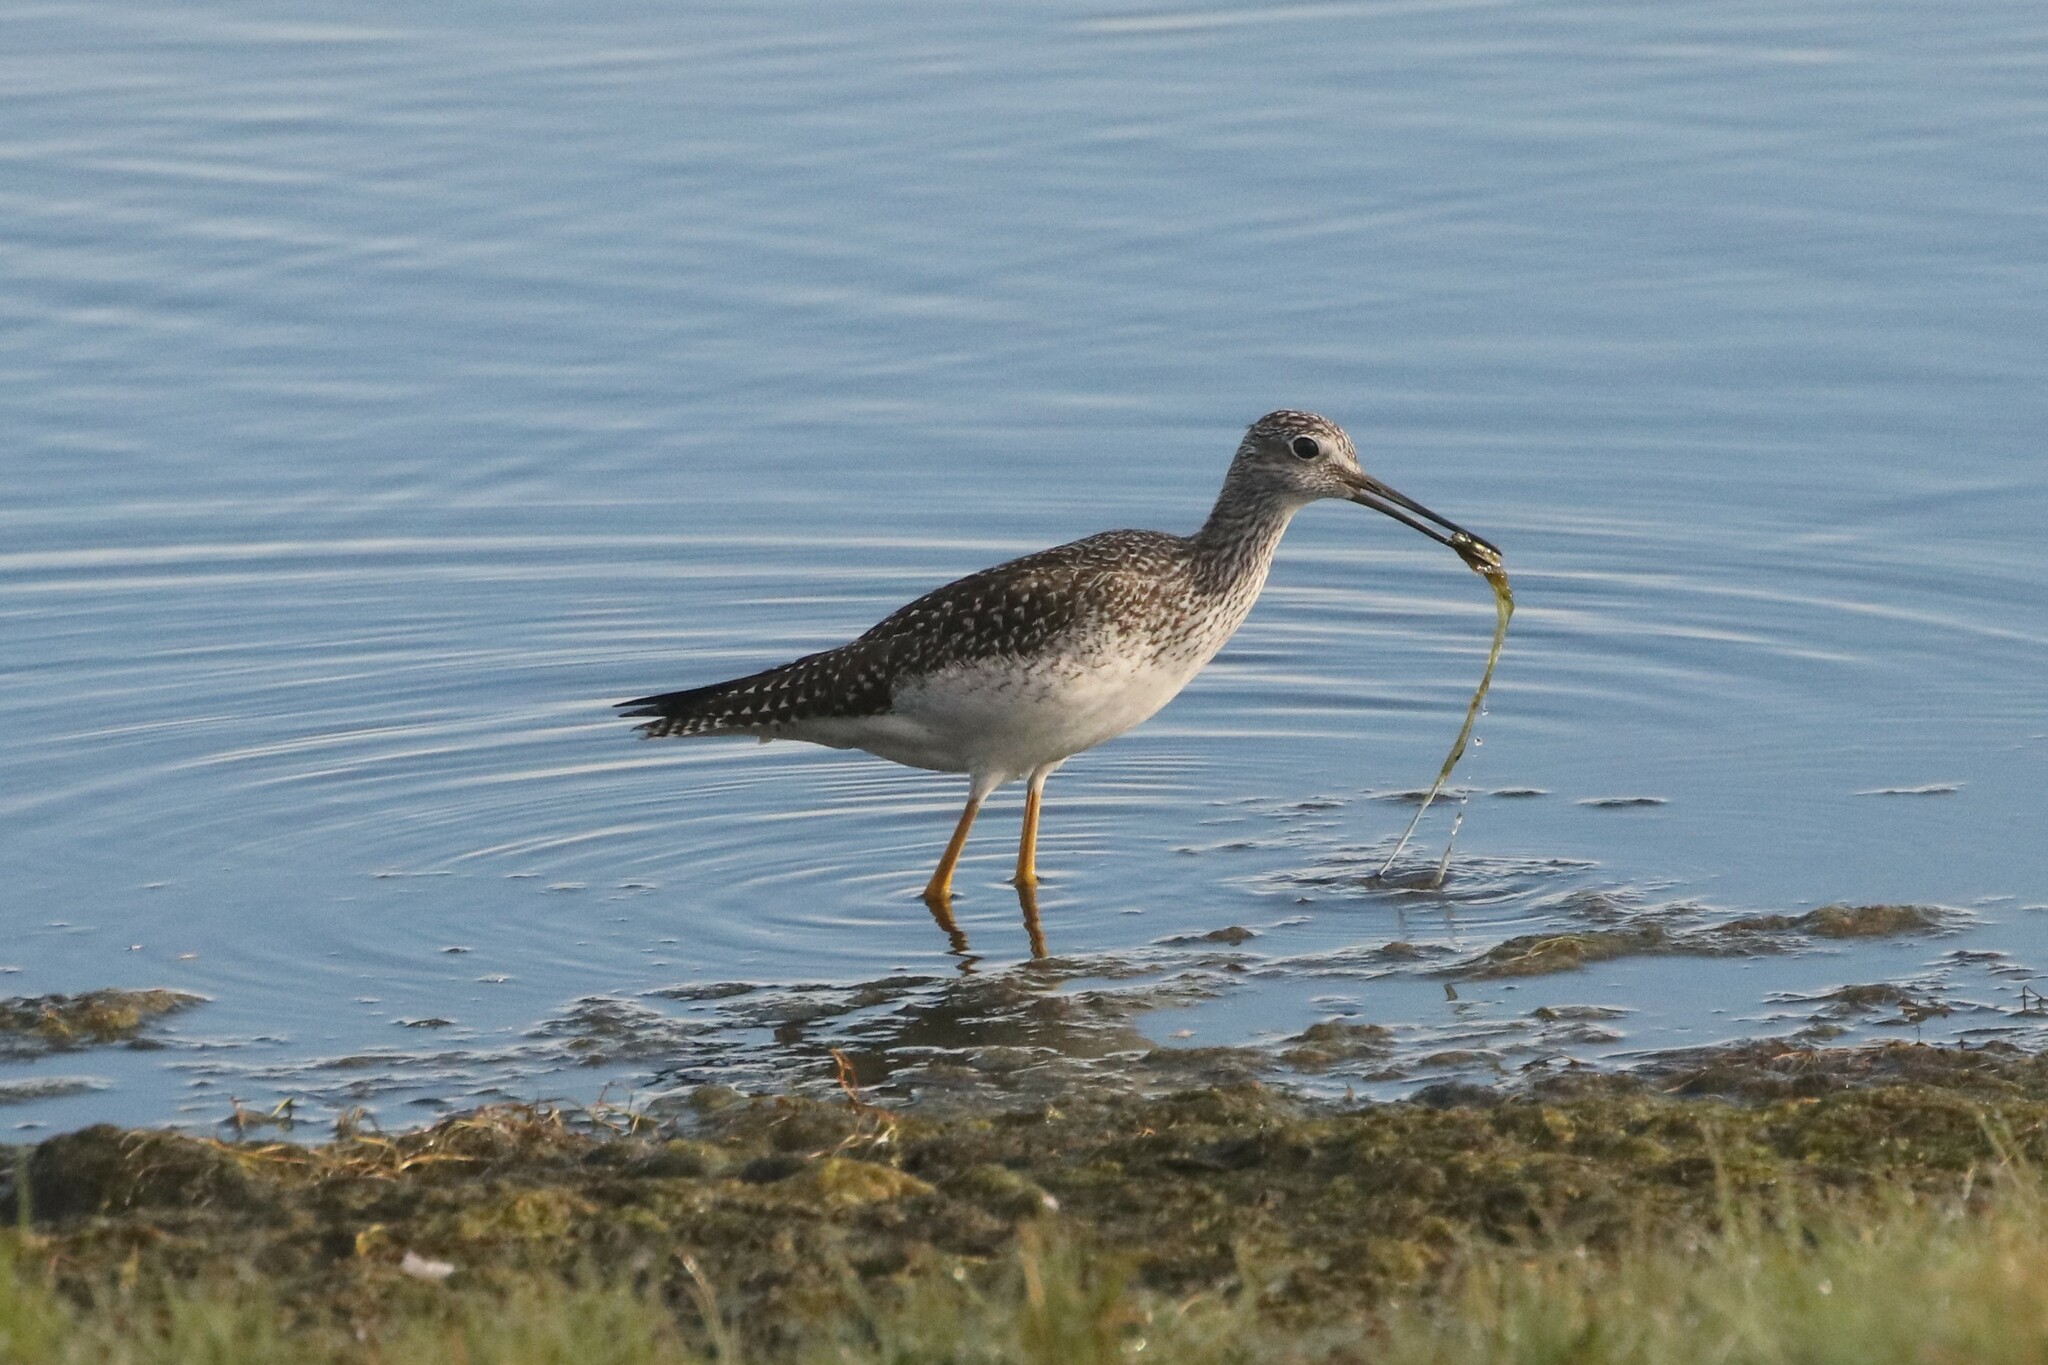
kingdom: Animalia
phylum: Chordata
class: Aves
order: Charadriiformes
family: Scolopacidae
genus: Tringa
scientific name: Tringa melanoleuca
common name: Greater yellowlegs
